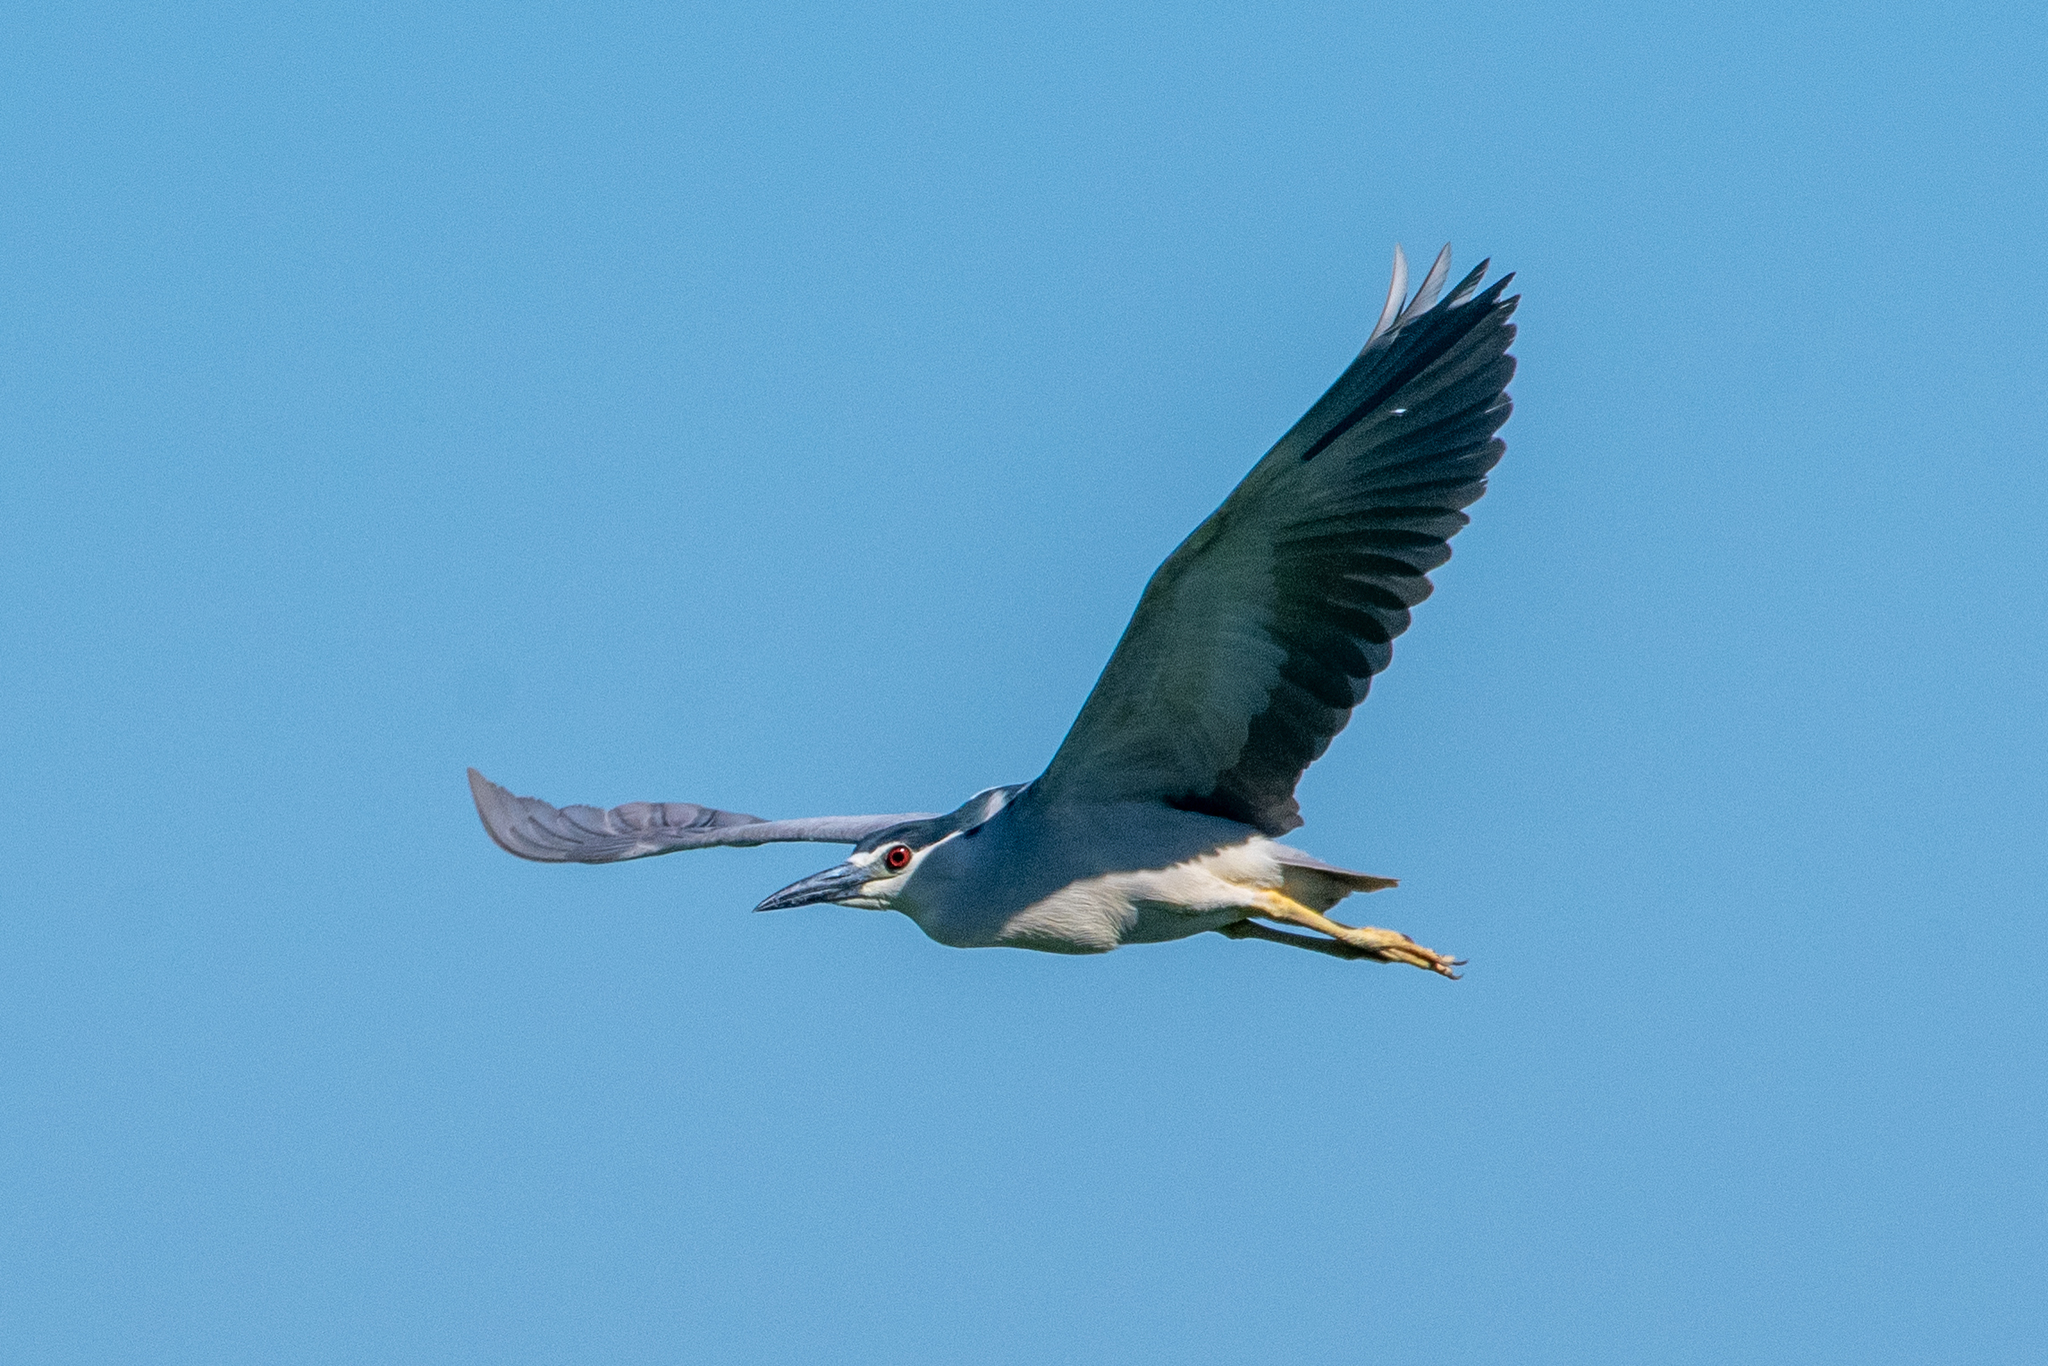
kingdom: Animalia
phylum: Chordata
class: Aves
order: Pelecaniformes
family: Ardeidae
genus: Nycticorax
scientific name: Nycticorax nycticorax
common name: Black-crowned night heron
